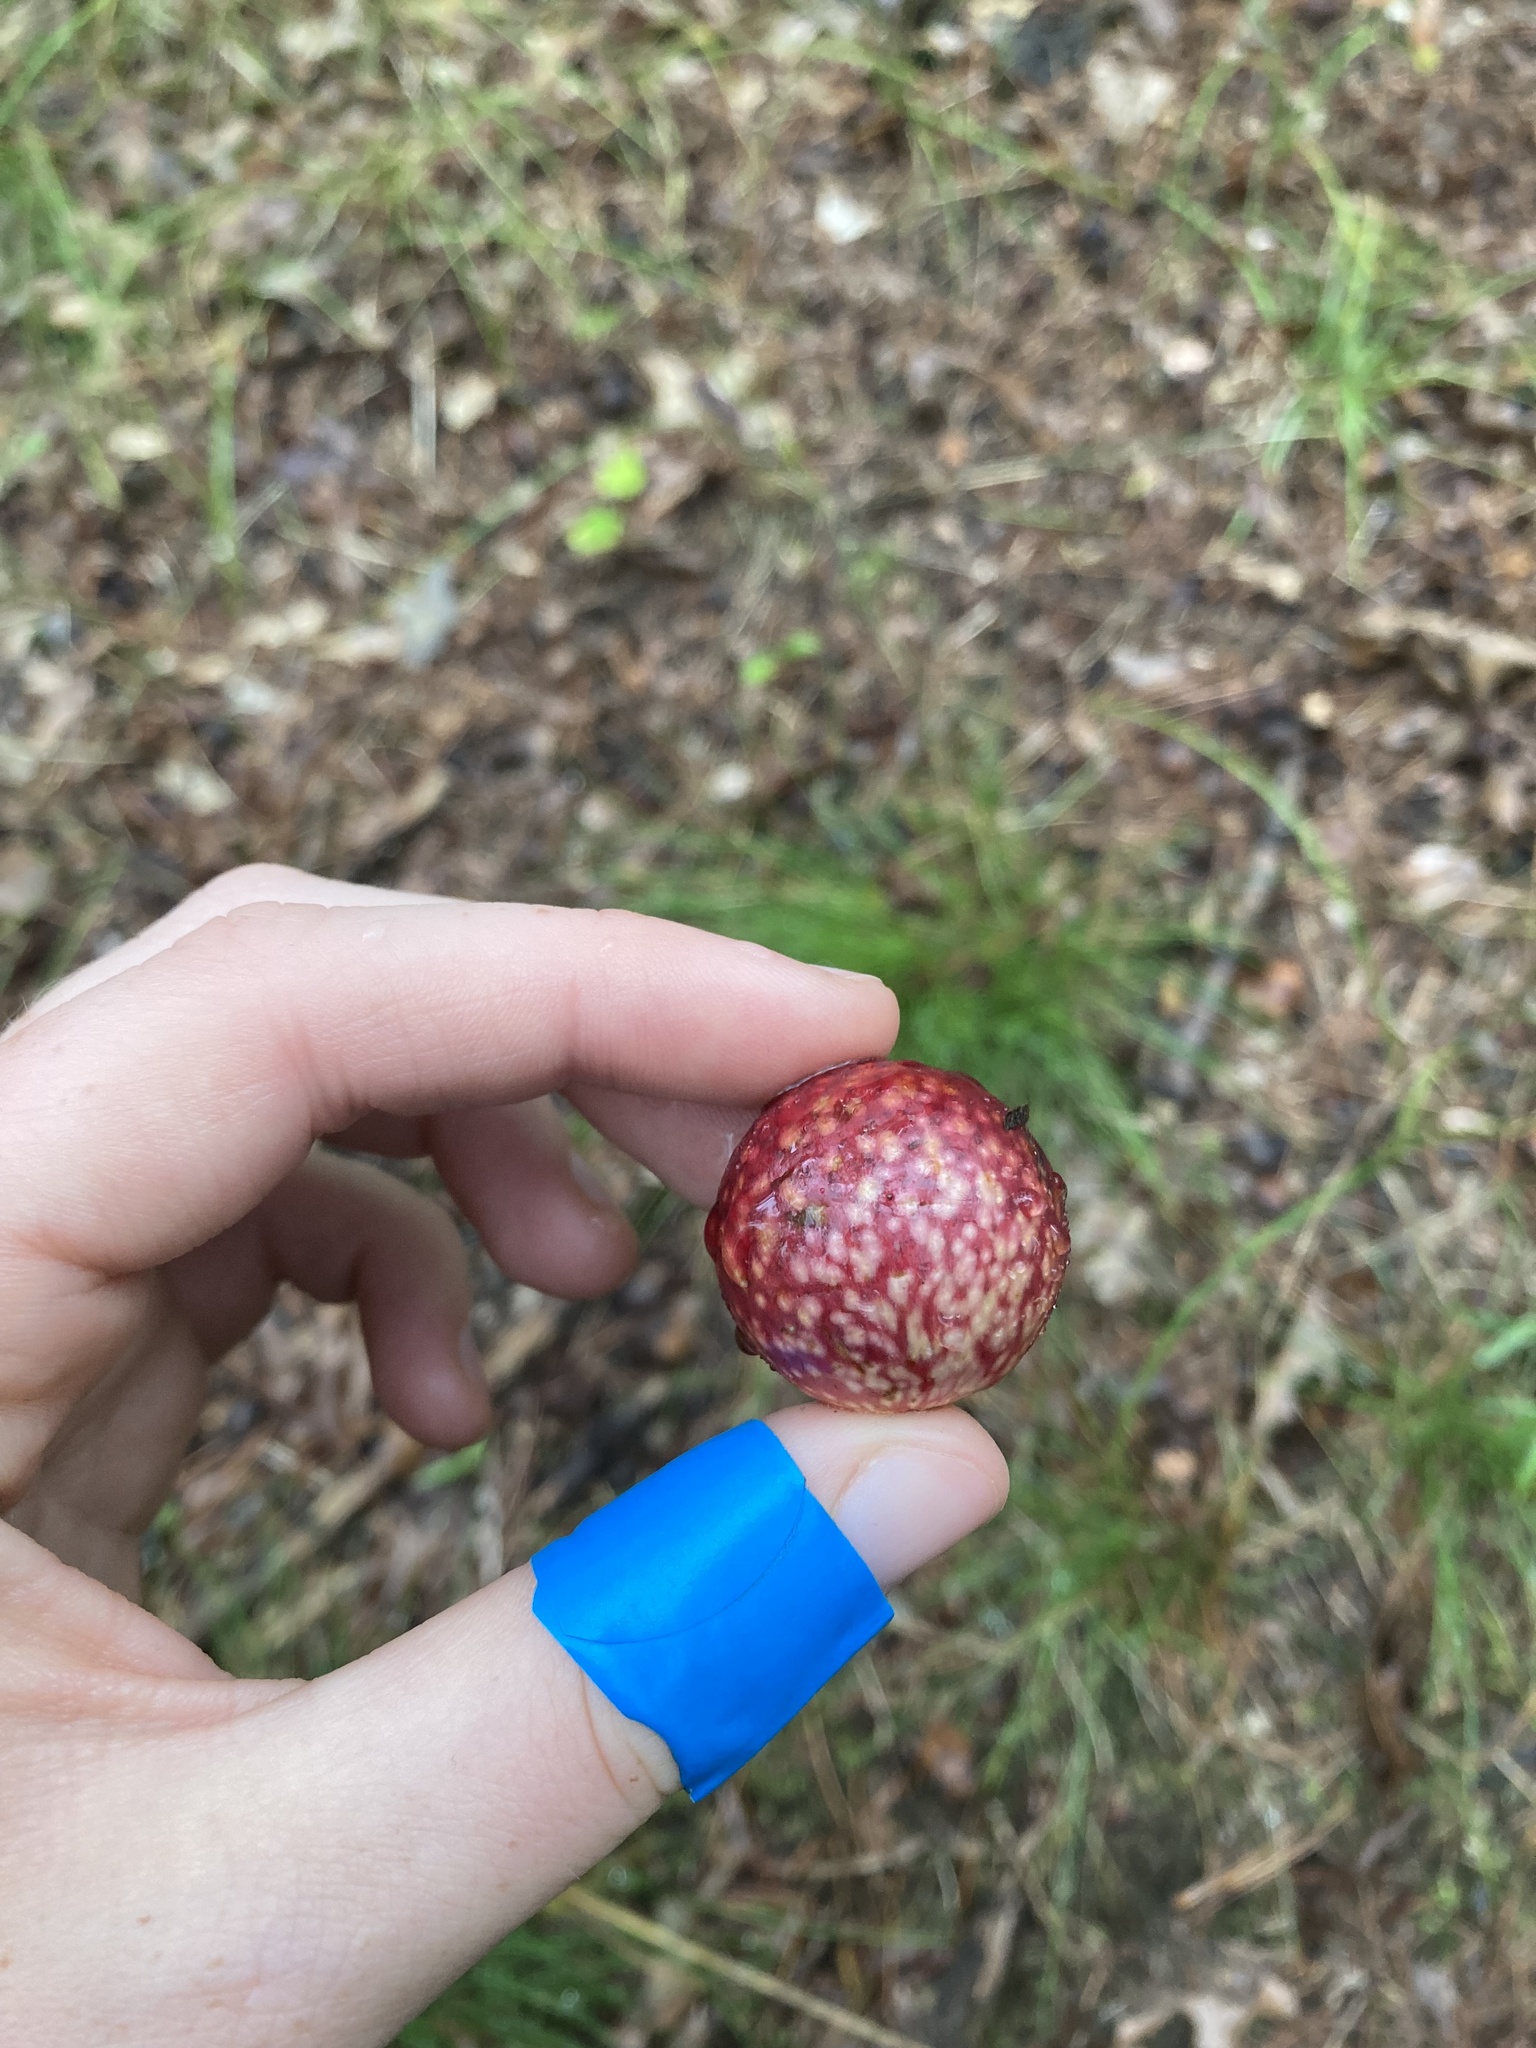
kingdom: Animalia
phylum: Arthropoda
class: Insecta
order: Hymenoptera
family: Cynipidae
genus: Amphibolips
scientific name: Amphibolips
